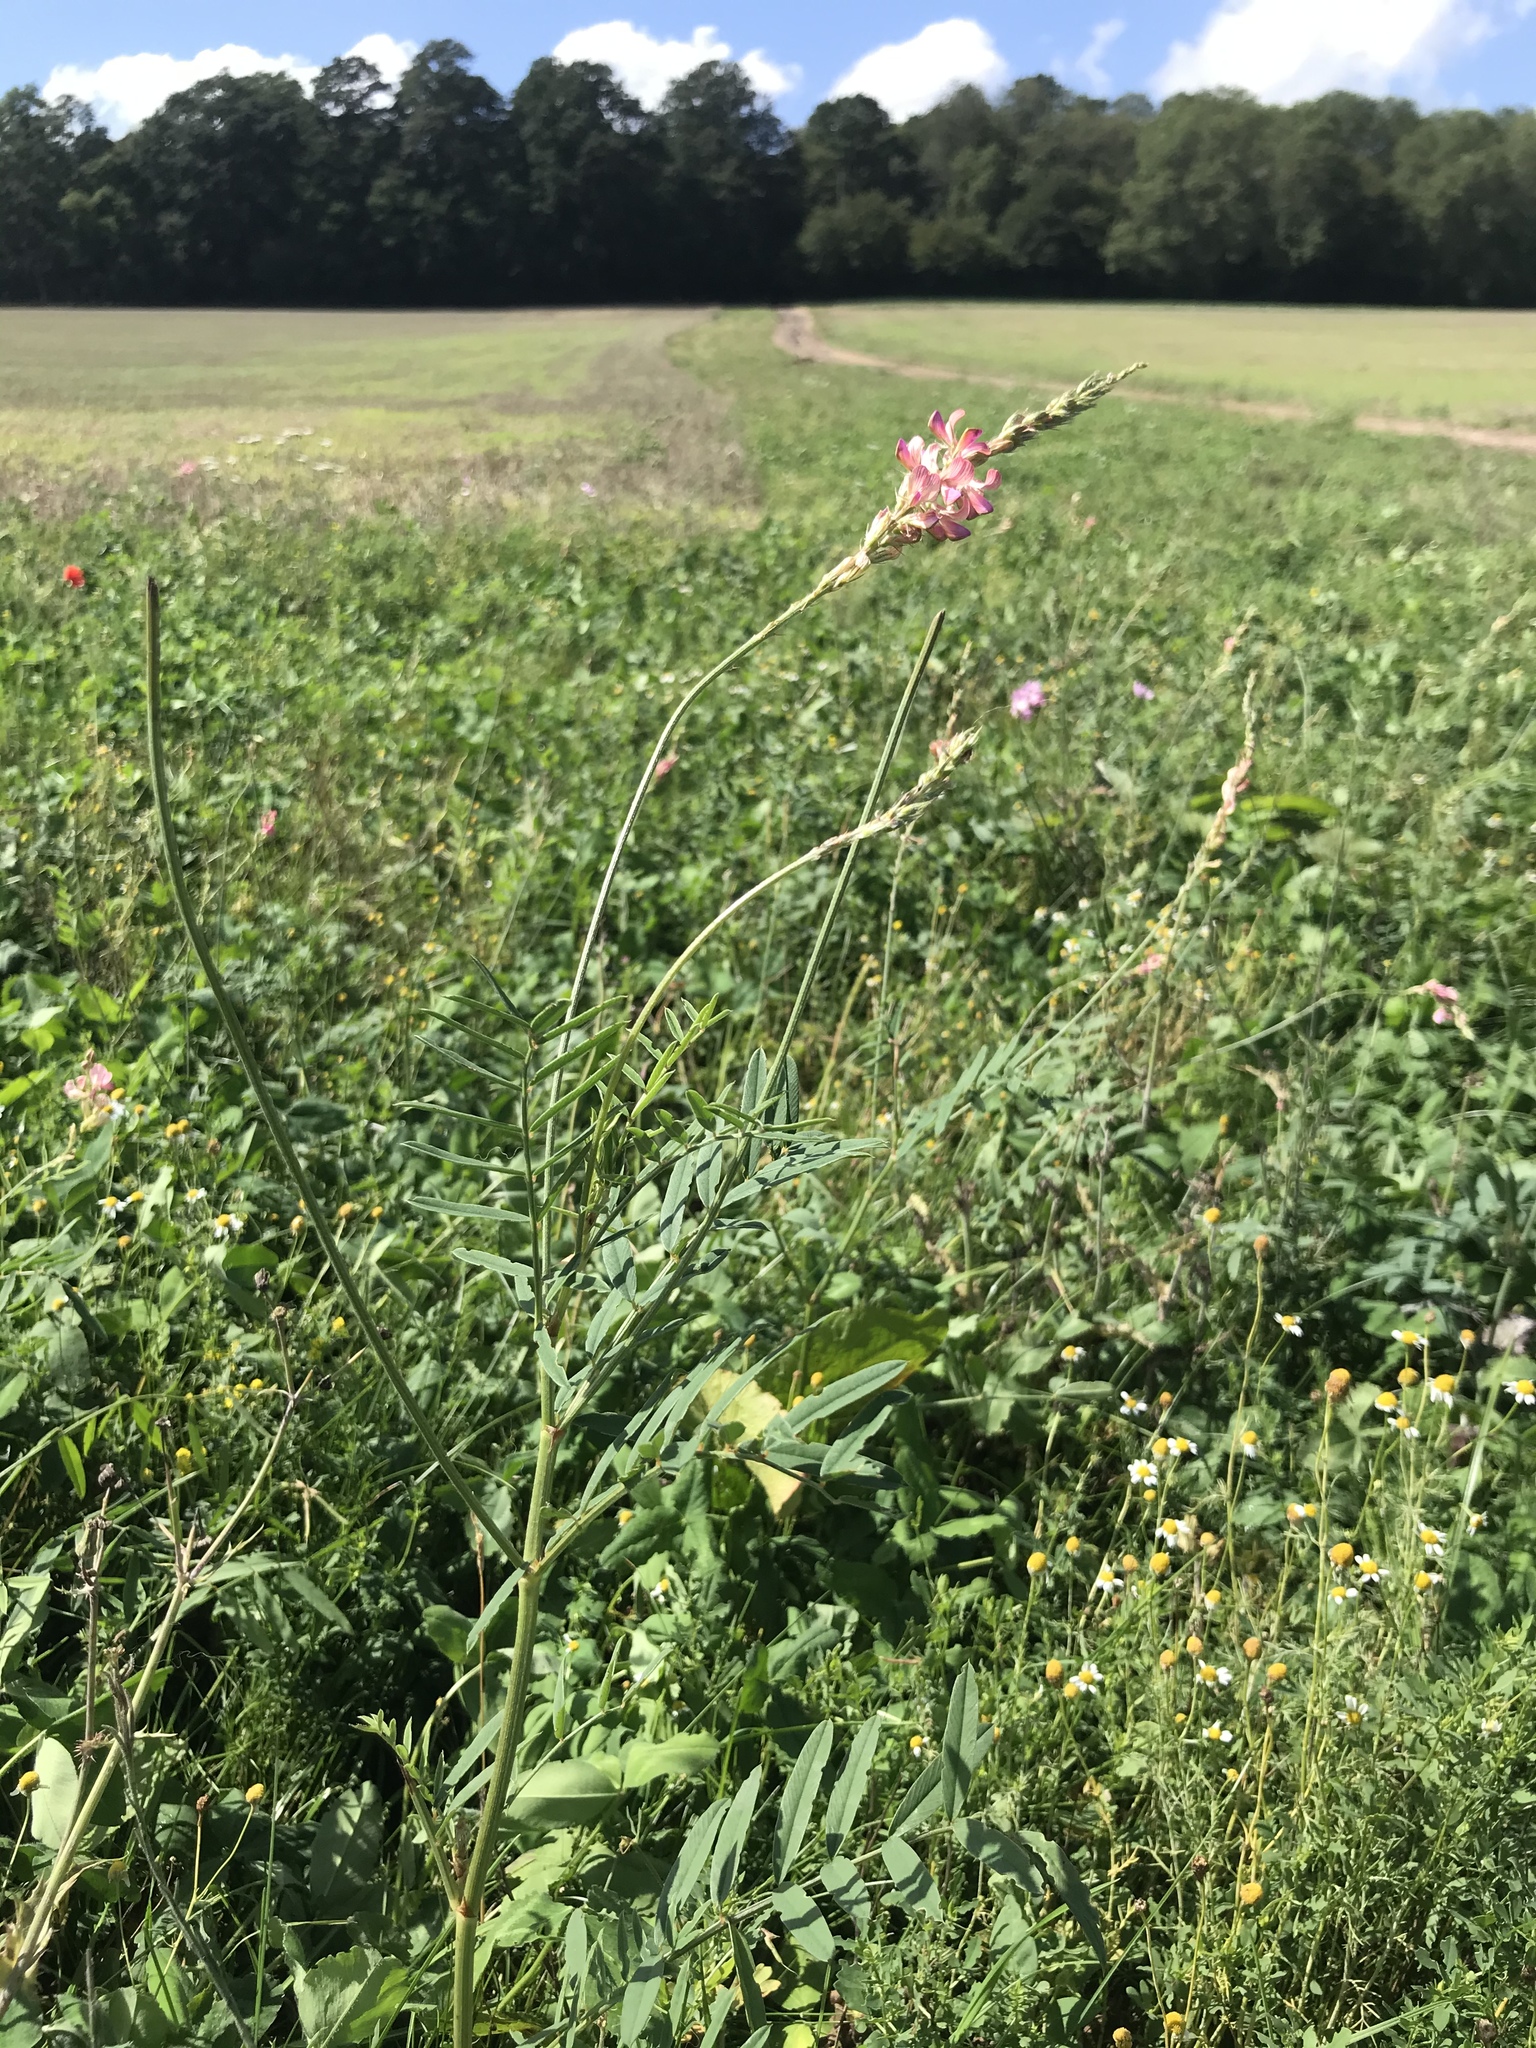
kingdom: Plantae
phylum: Tracheophyta
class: Magnoliopsida
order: Fabales
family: Fabaceae
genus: Onobrychis
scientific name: Onobrychis viciifolia
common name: Sainfoin
